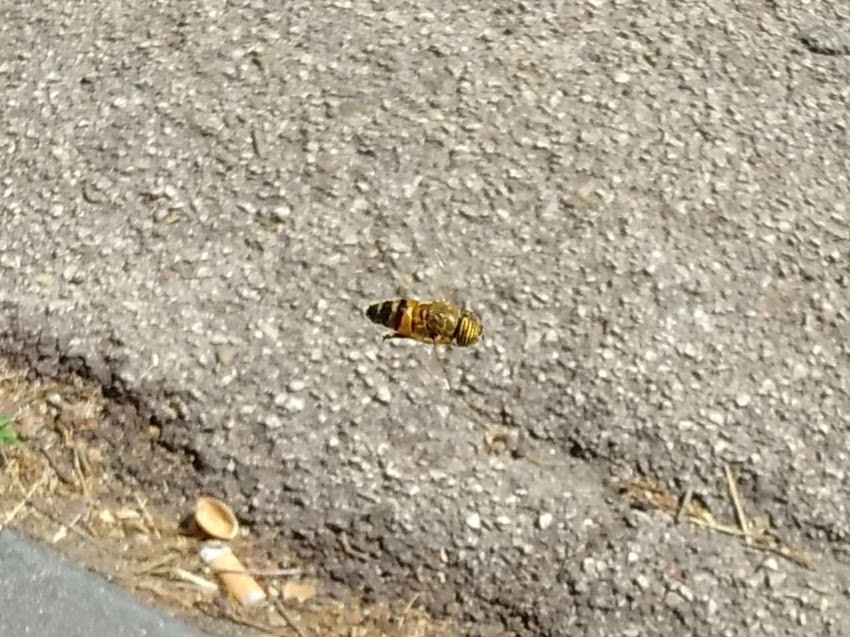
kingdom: Animalia
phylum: Arthropoda
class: Insecta
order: Diptera
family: Syrphidae
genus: Eristalinus
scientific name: Eristalinus taeniops
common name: Syrphid fly
